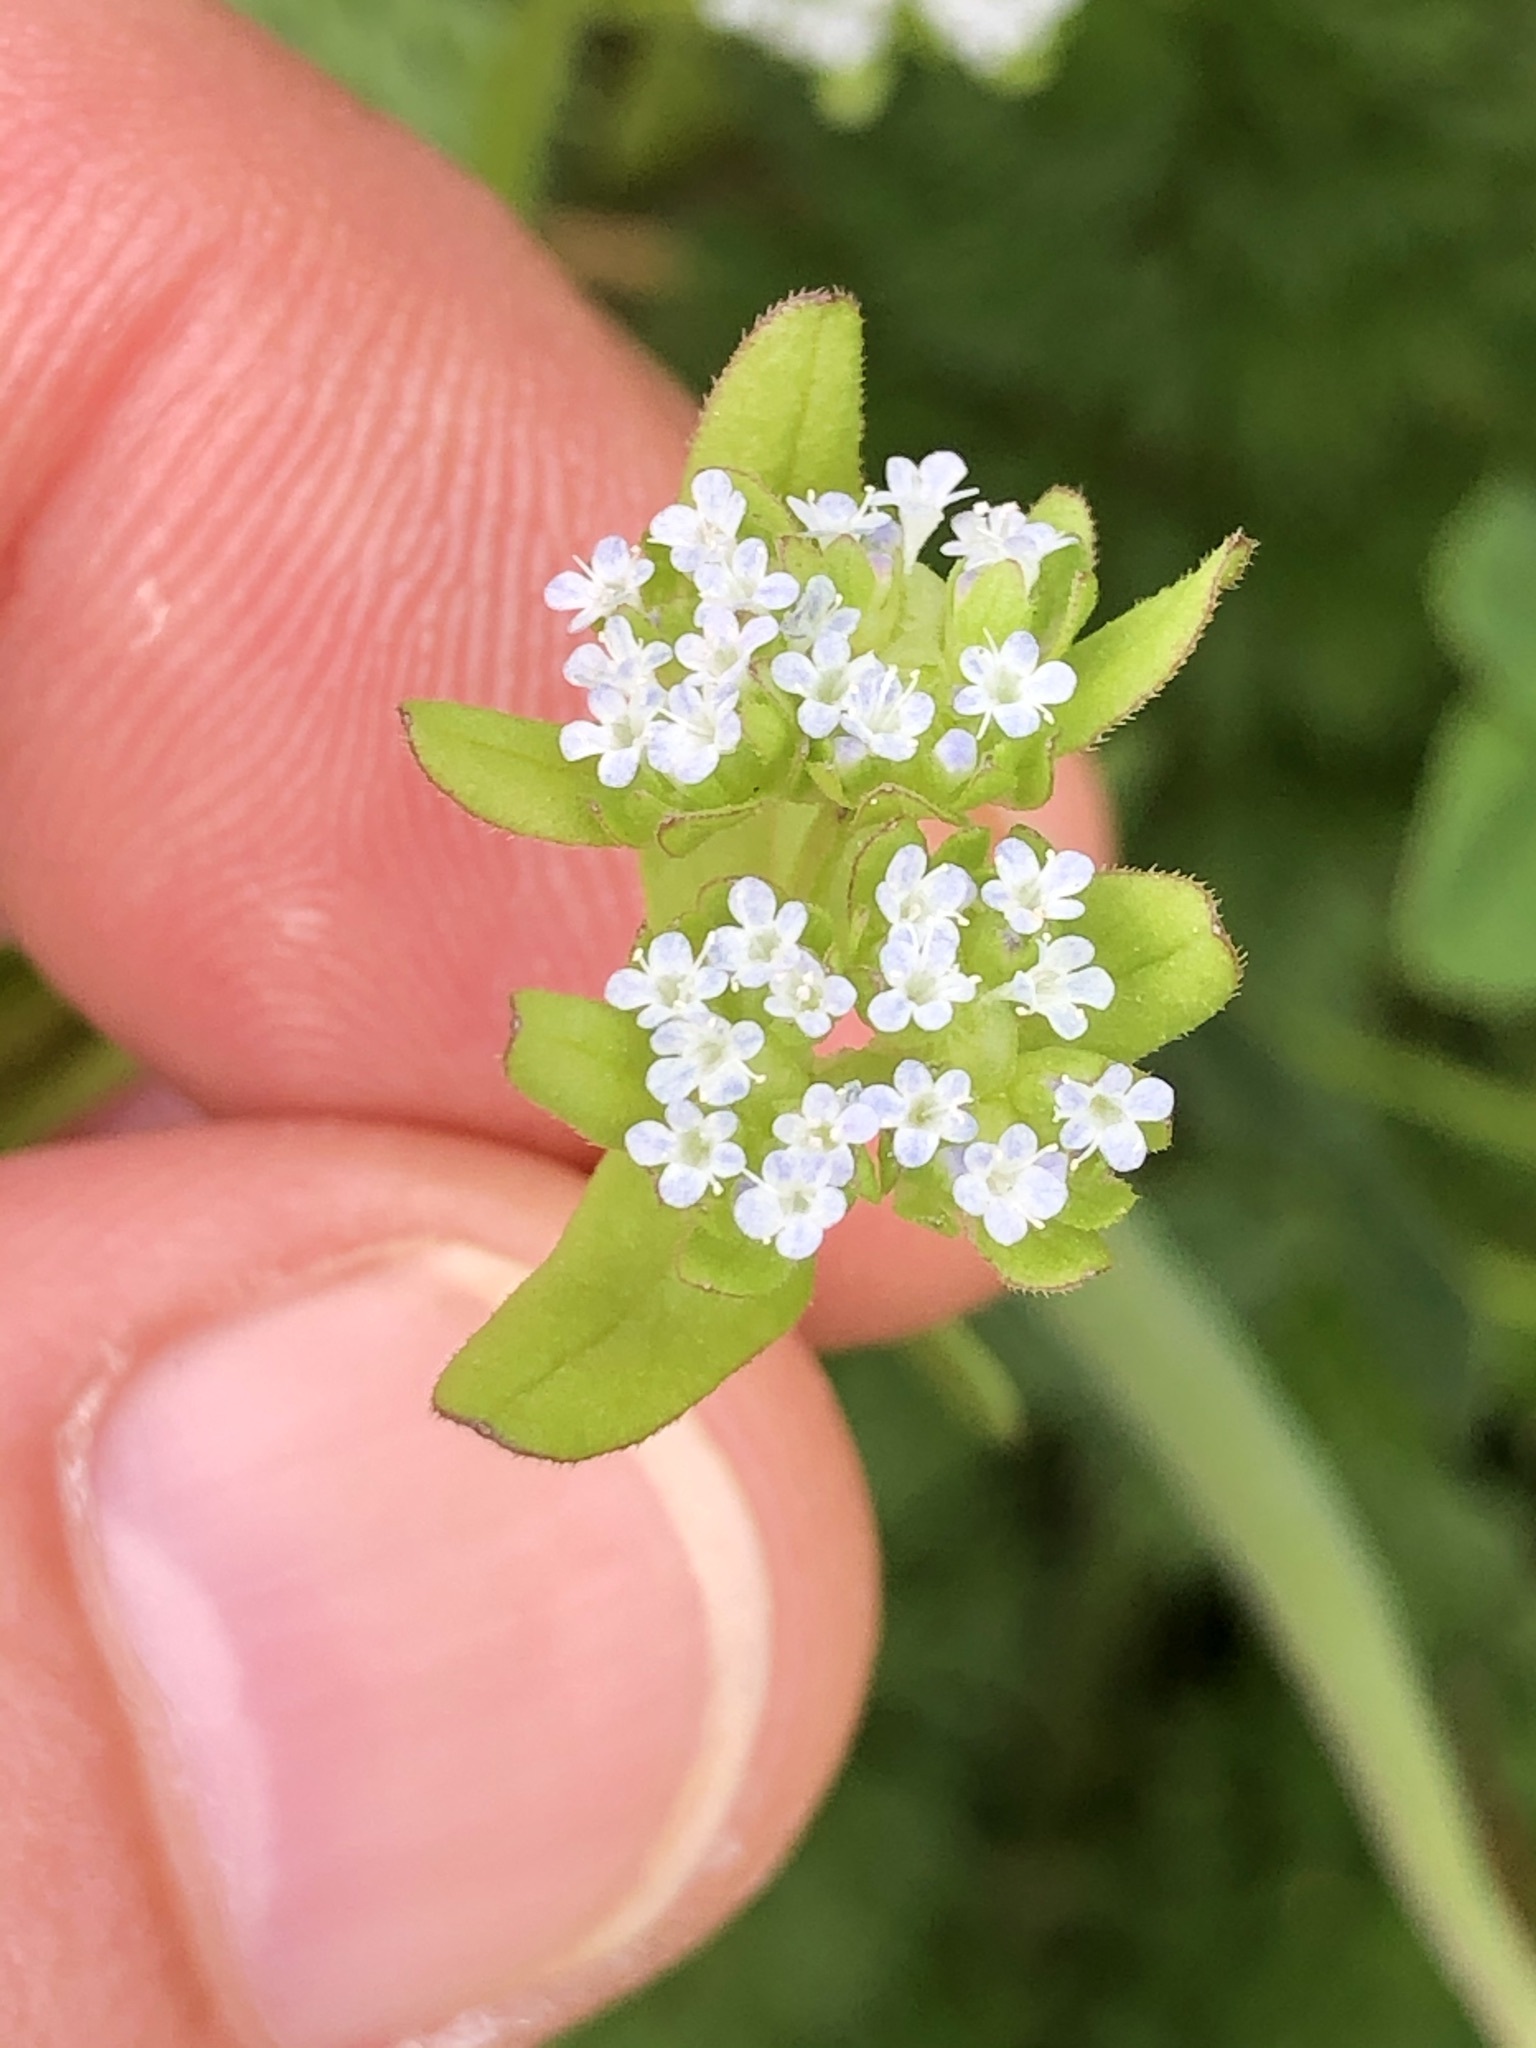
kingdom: Plantae
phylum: Tracheophyta
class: Magnoliopsida
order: Dipsacales
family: Caprifoliaceae
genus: Valerianella
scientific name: Valerianella locusta
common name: Common cornsalad
